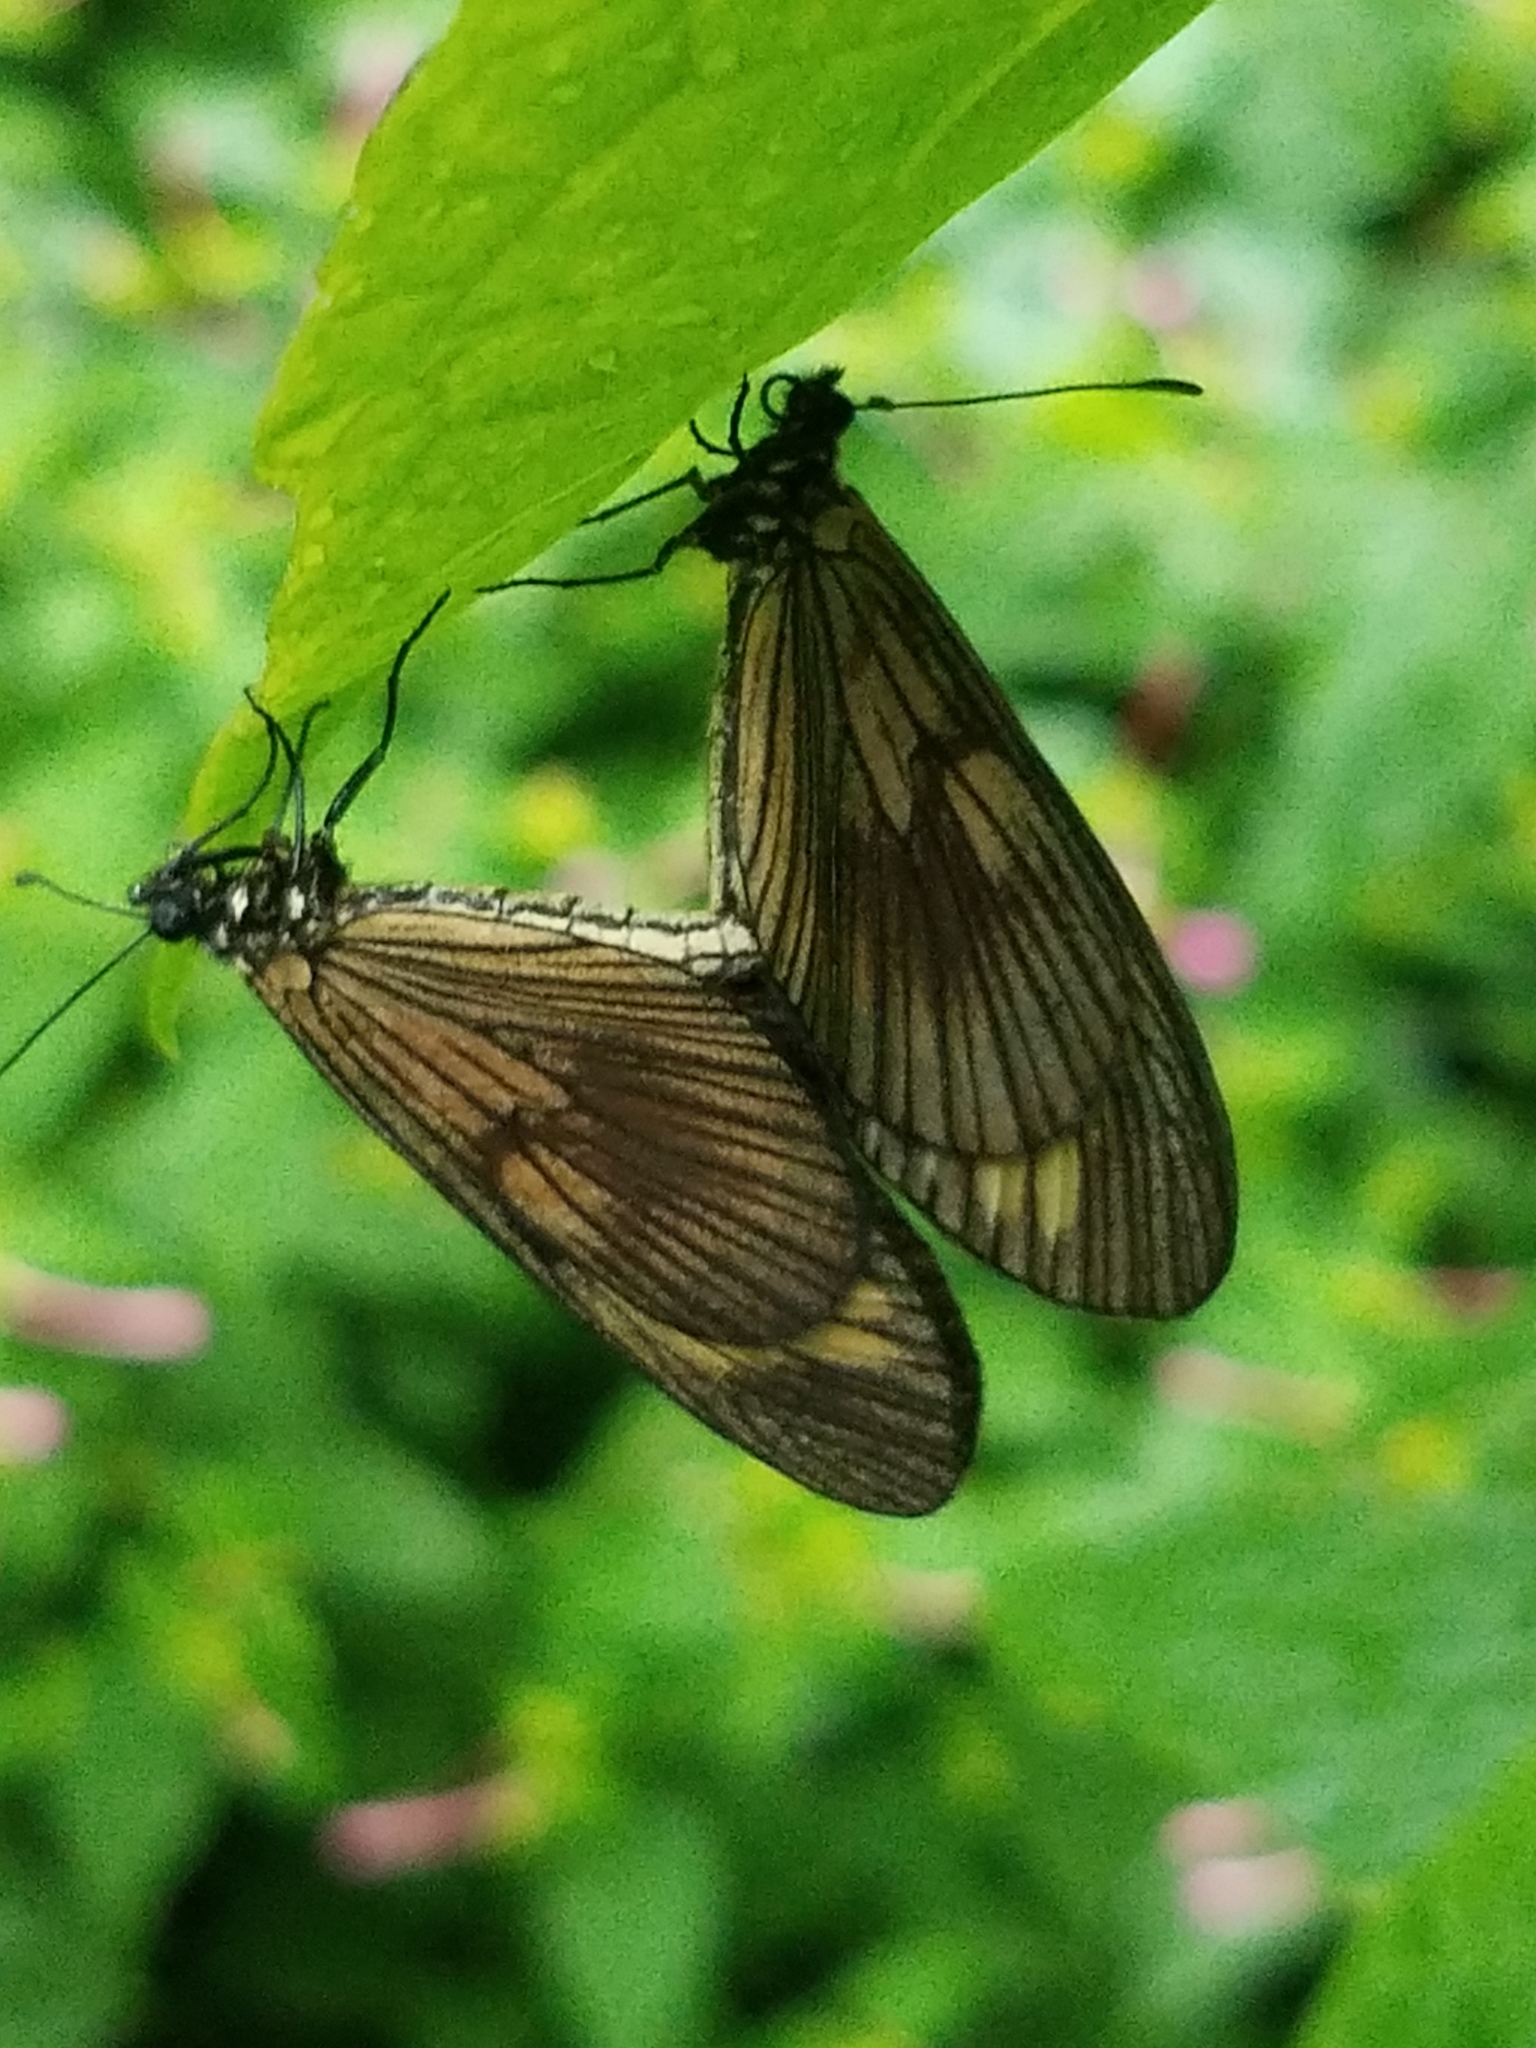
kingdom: Animalia
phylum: Arthropoda
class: Insecta
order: Lepidoptera
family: Nymphalidae
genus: Actinote
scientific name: Actinote anteas
